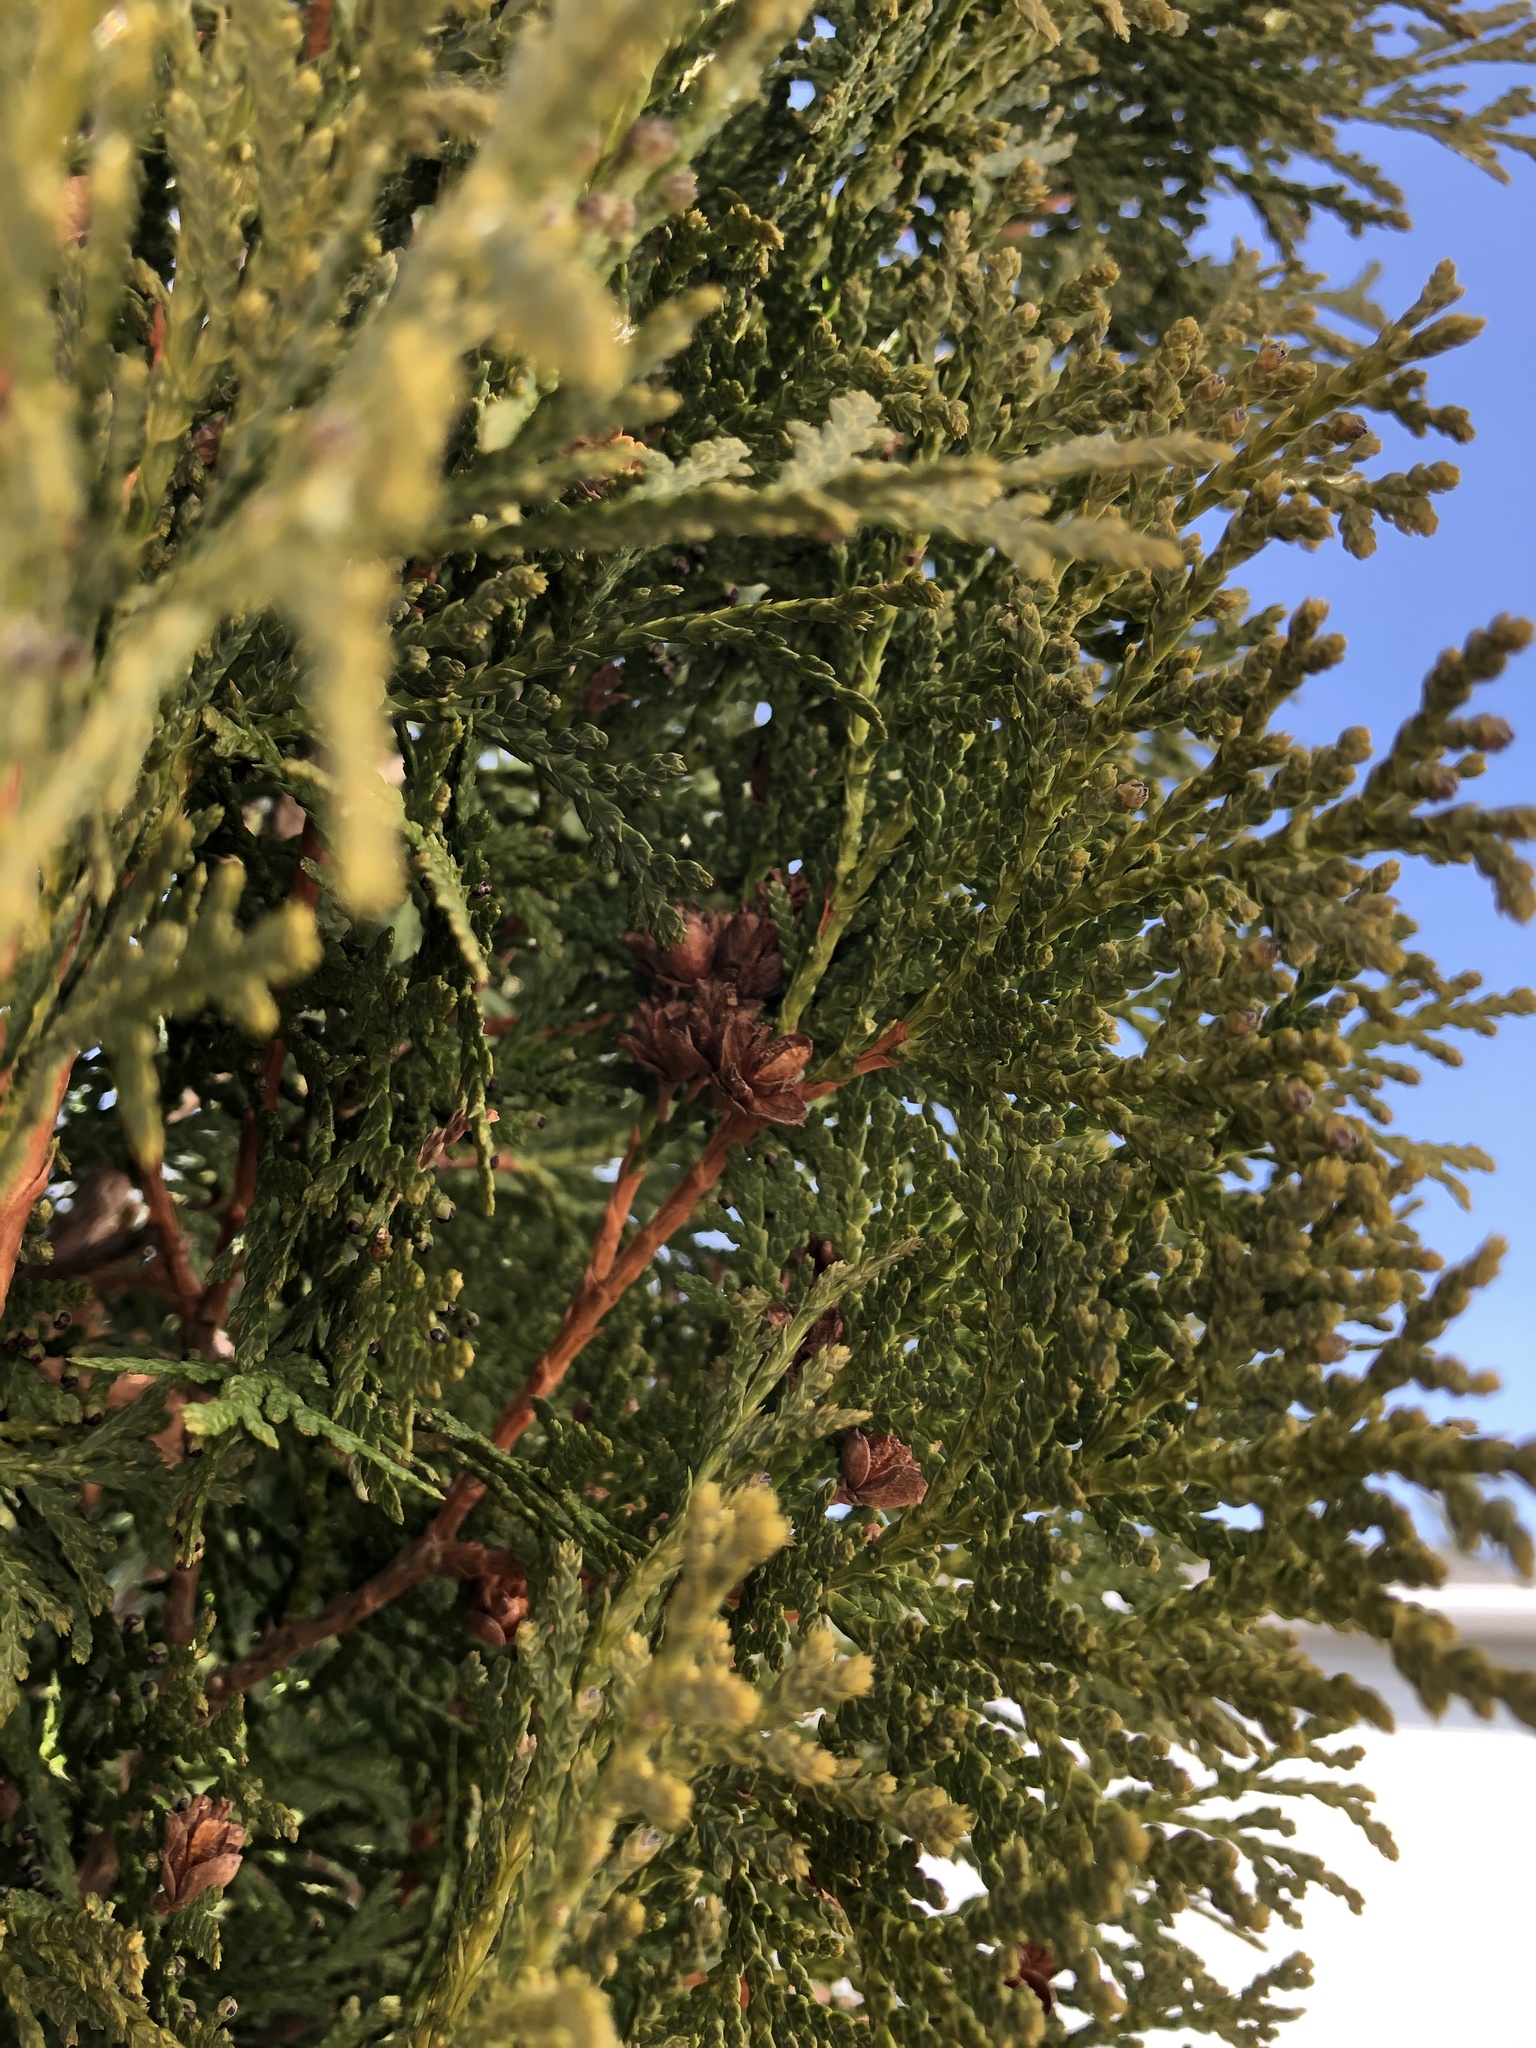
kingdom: Plantae
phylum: Tracheophyta
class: Pinopsida
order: Pinales
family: Cupressaceae
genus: Thuja
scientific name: Thuja occidentalis
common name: Northern white-cedar
